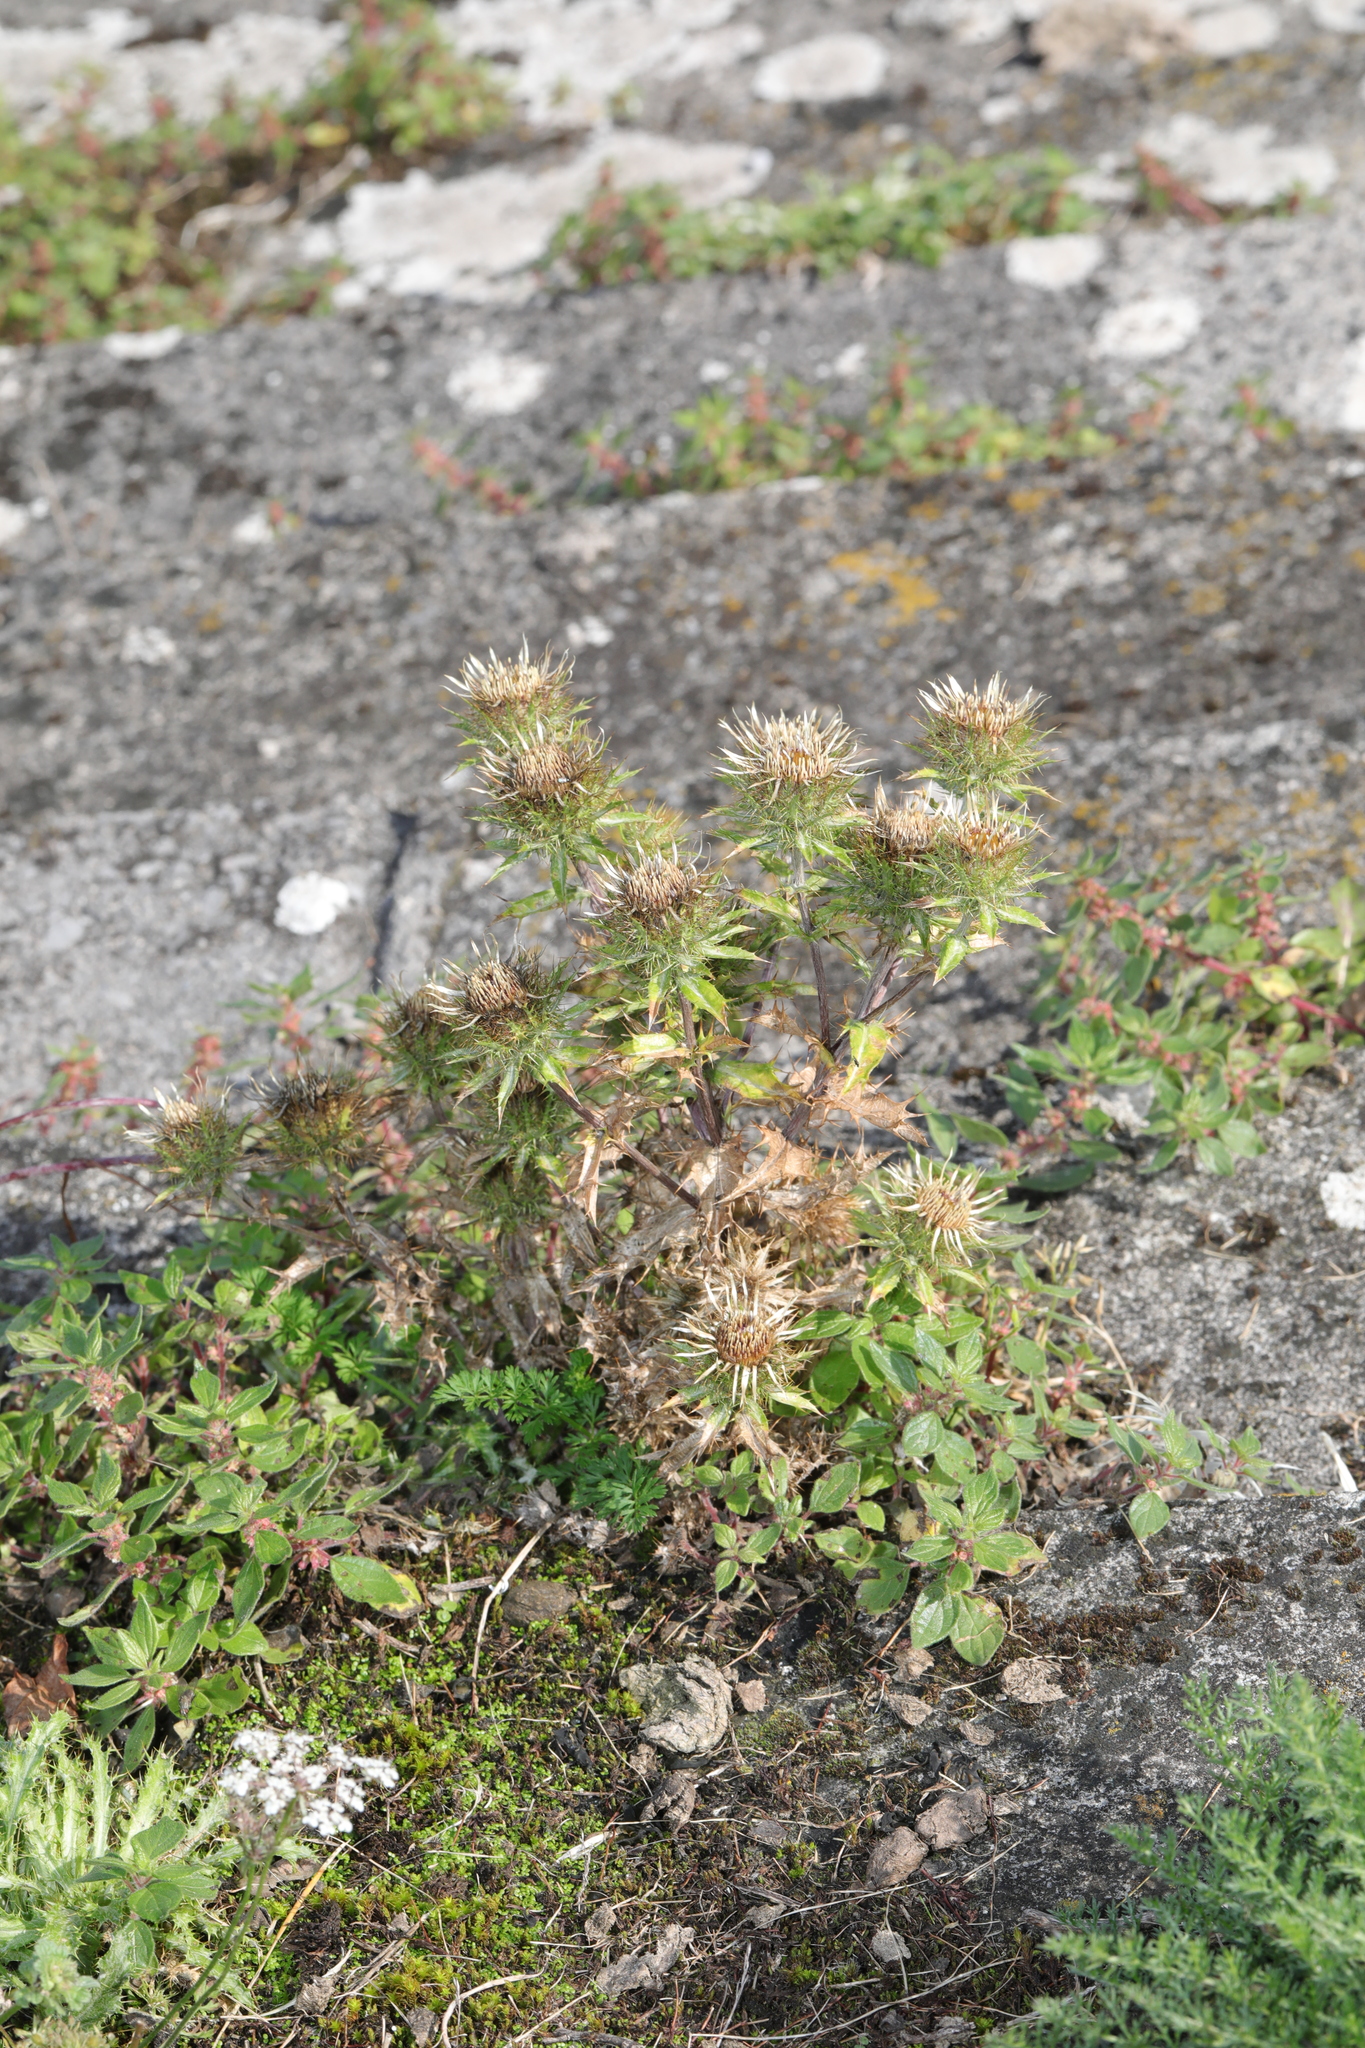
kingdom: Plantae
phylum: Tracheophyta
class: Magnoliopsida
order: Asterales
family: Asteraceae
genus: Carlina
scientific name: Carlina vulgaris
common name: Carline thistle
